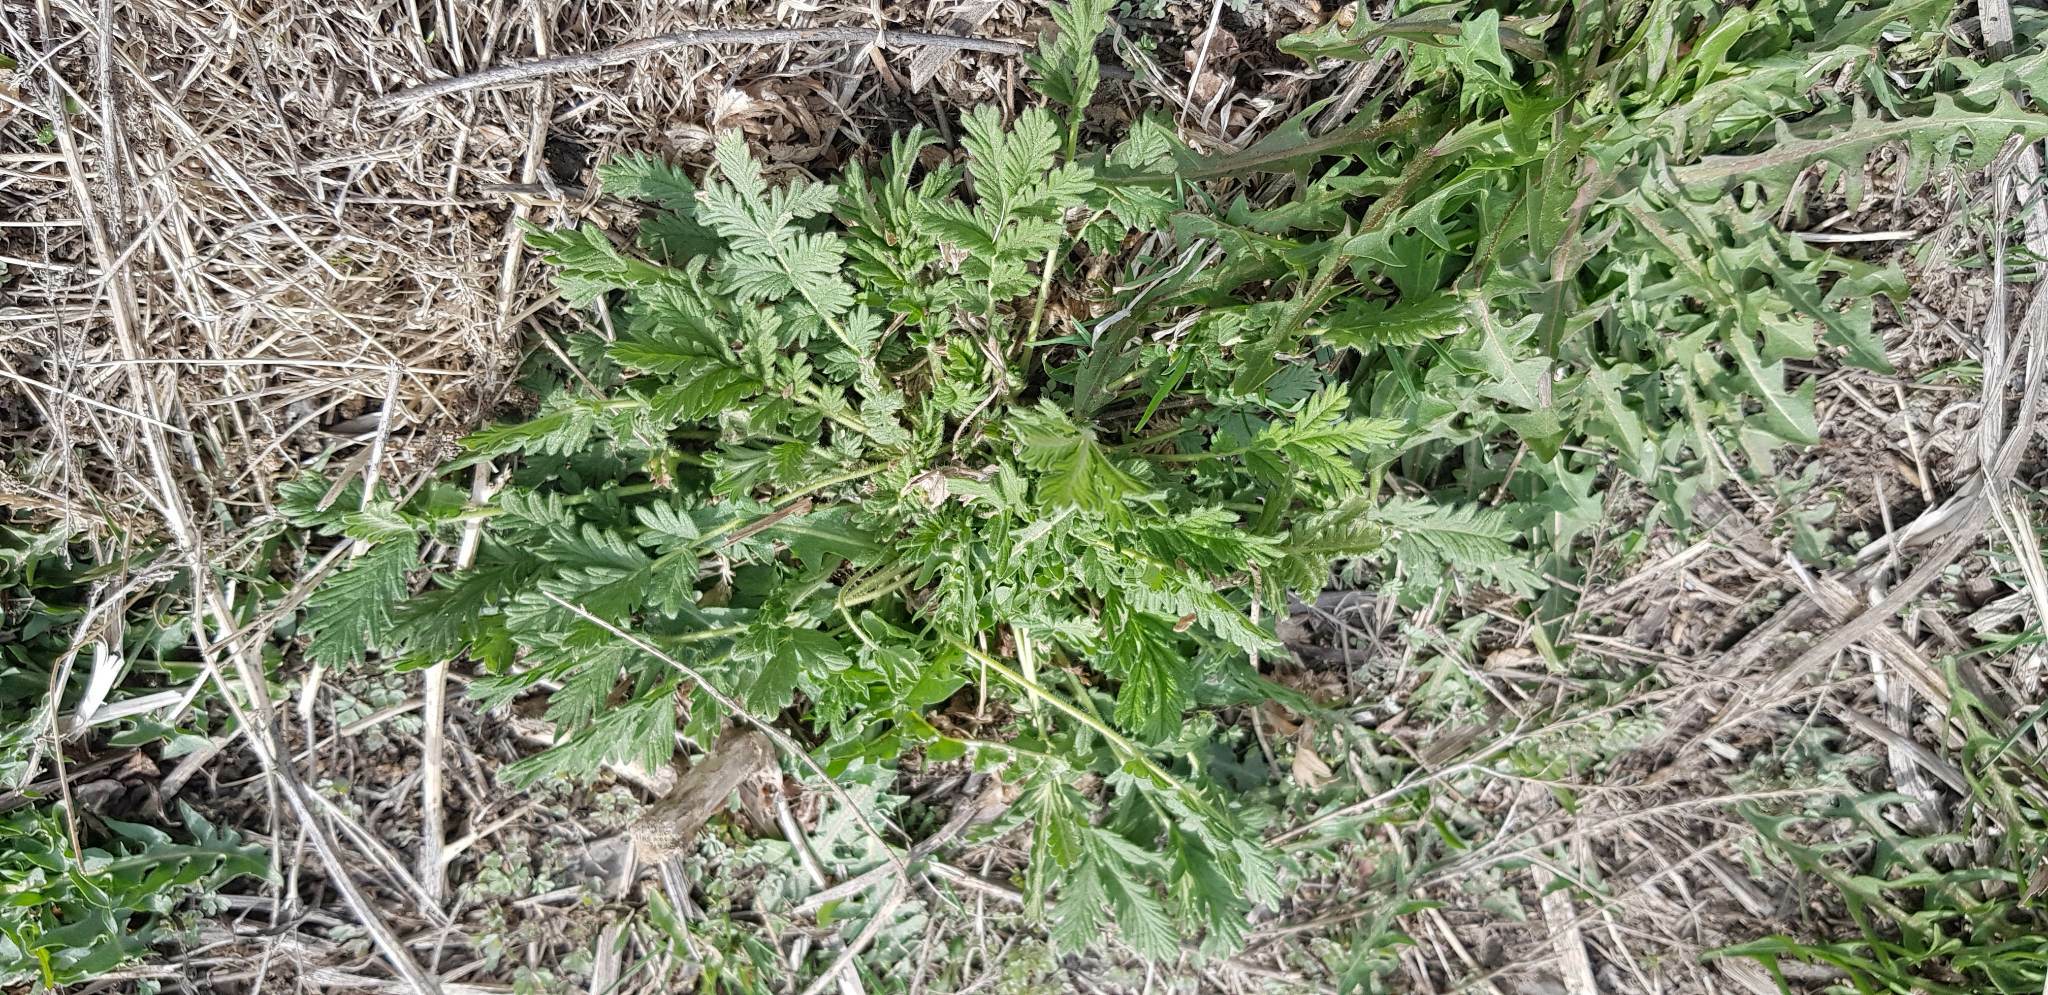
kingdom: Plantae
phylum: Tracheophyta
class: Magnoliopsida
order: Rosales
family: Rosaceae
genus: Potentilla
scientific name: Potentilla tanacetifolia
